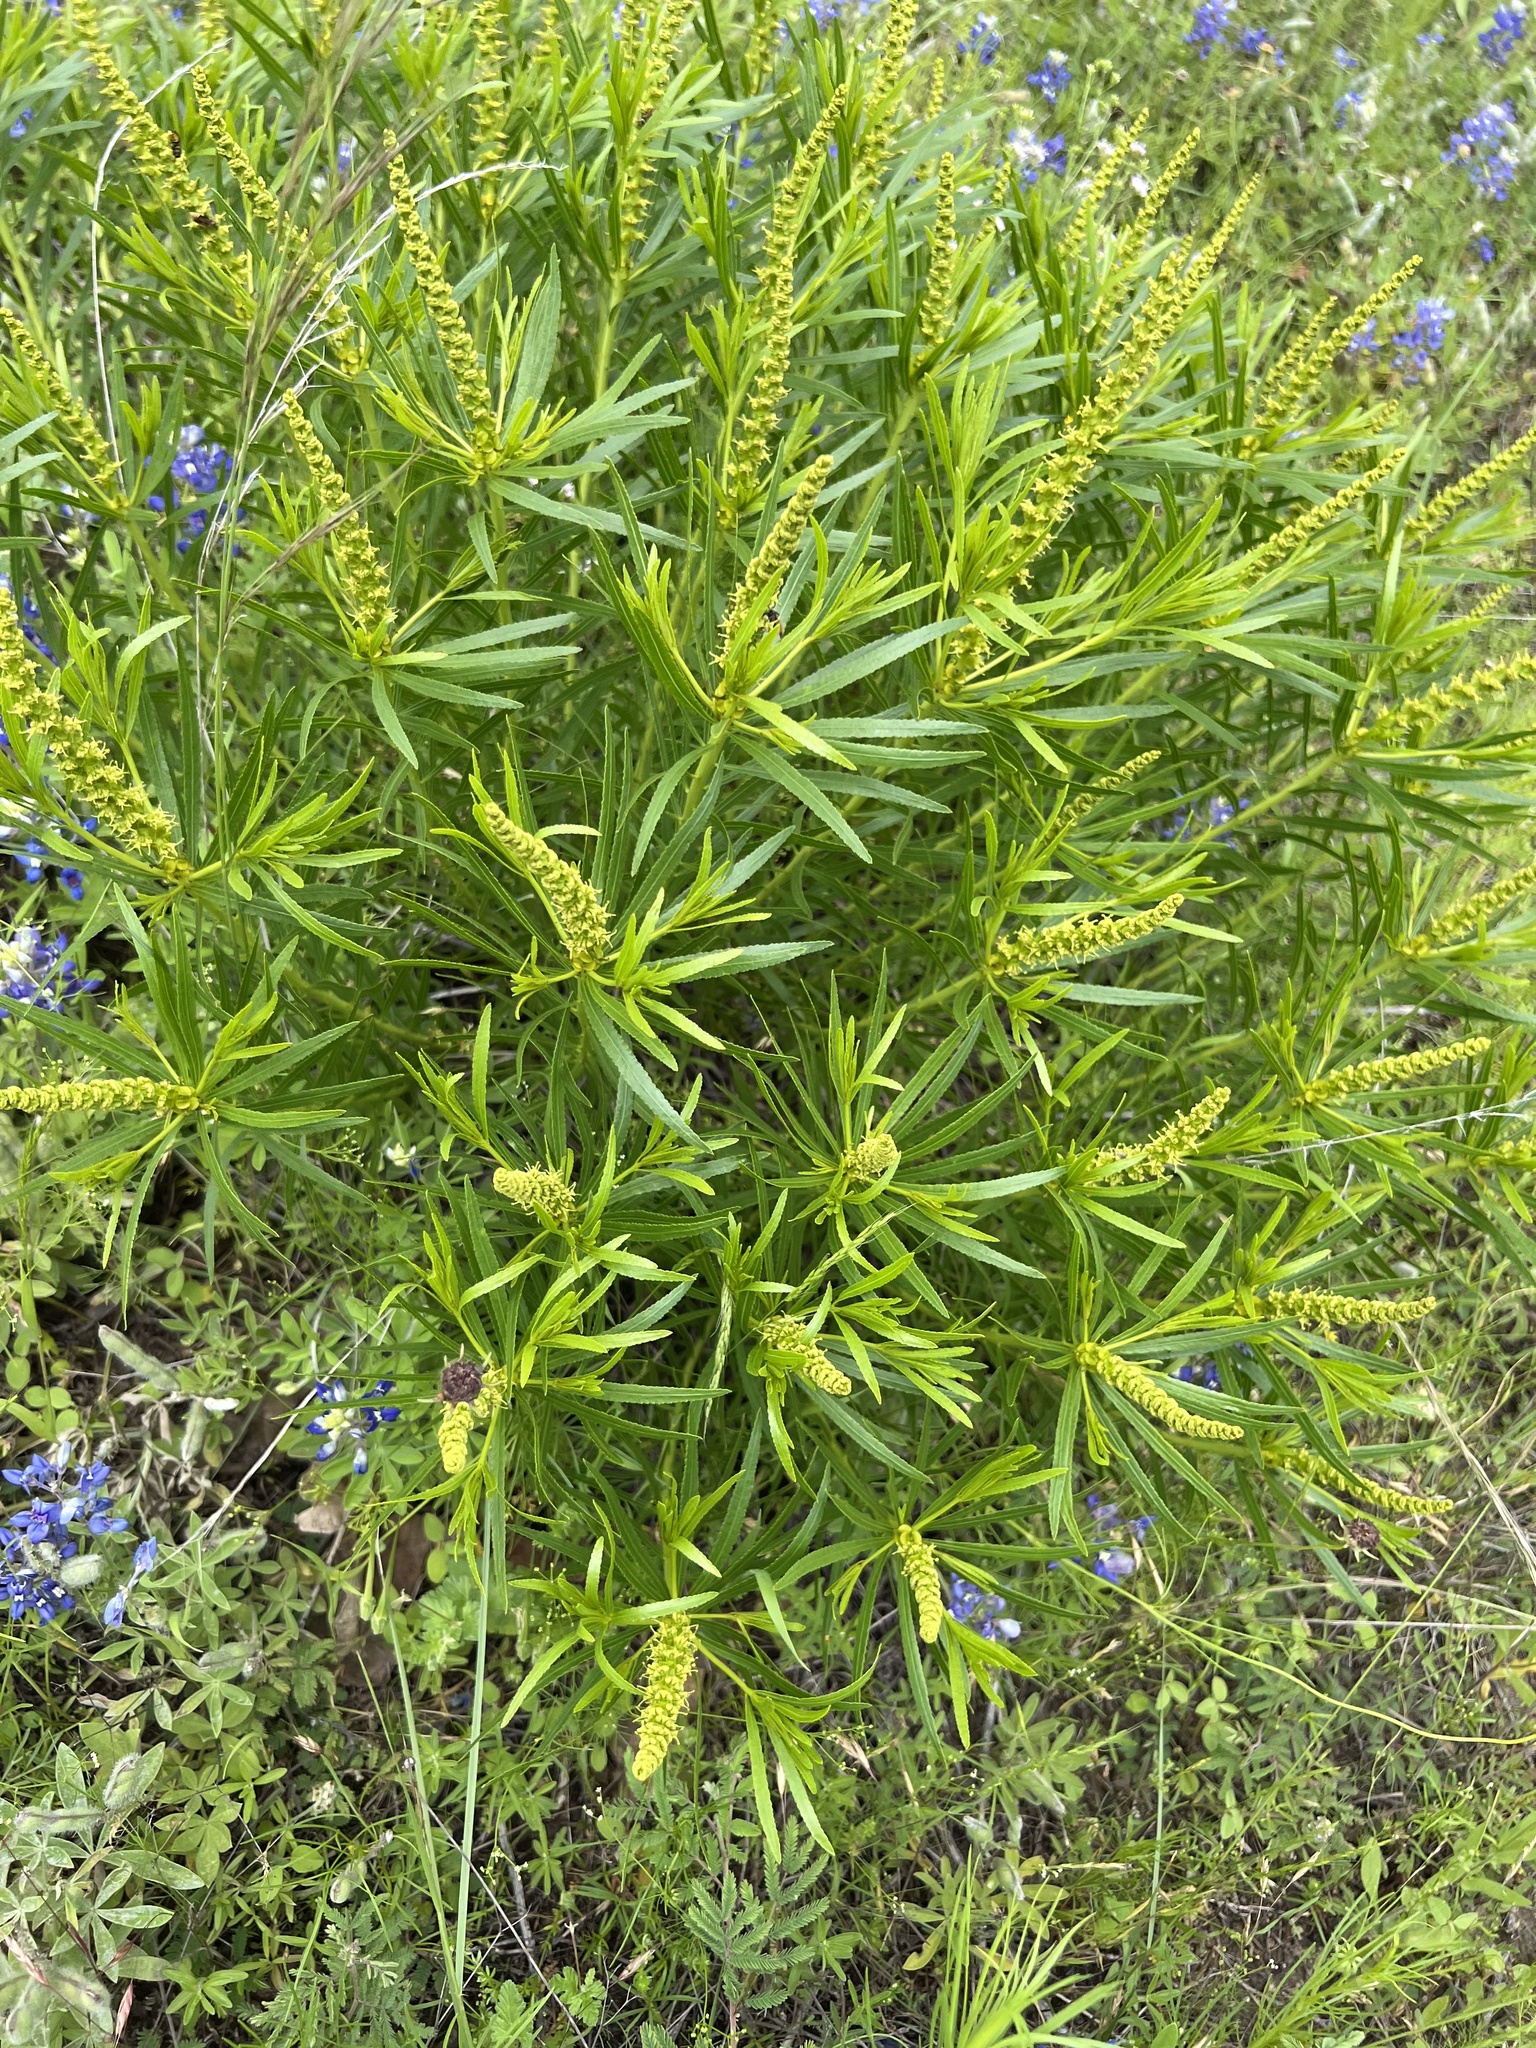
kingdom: Plantae
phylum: Tracheophyta
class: Magnoliopsida
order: Malpighiales
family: Euphorbiaceae
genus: Stillingia
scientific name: Stillingia texana
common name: Texas stillingia
